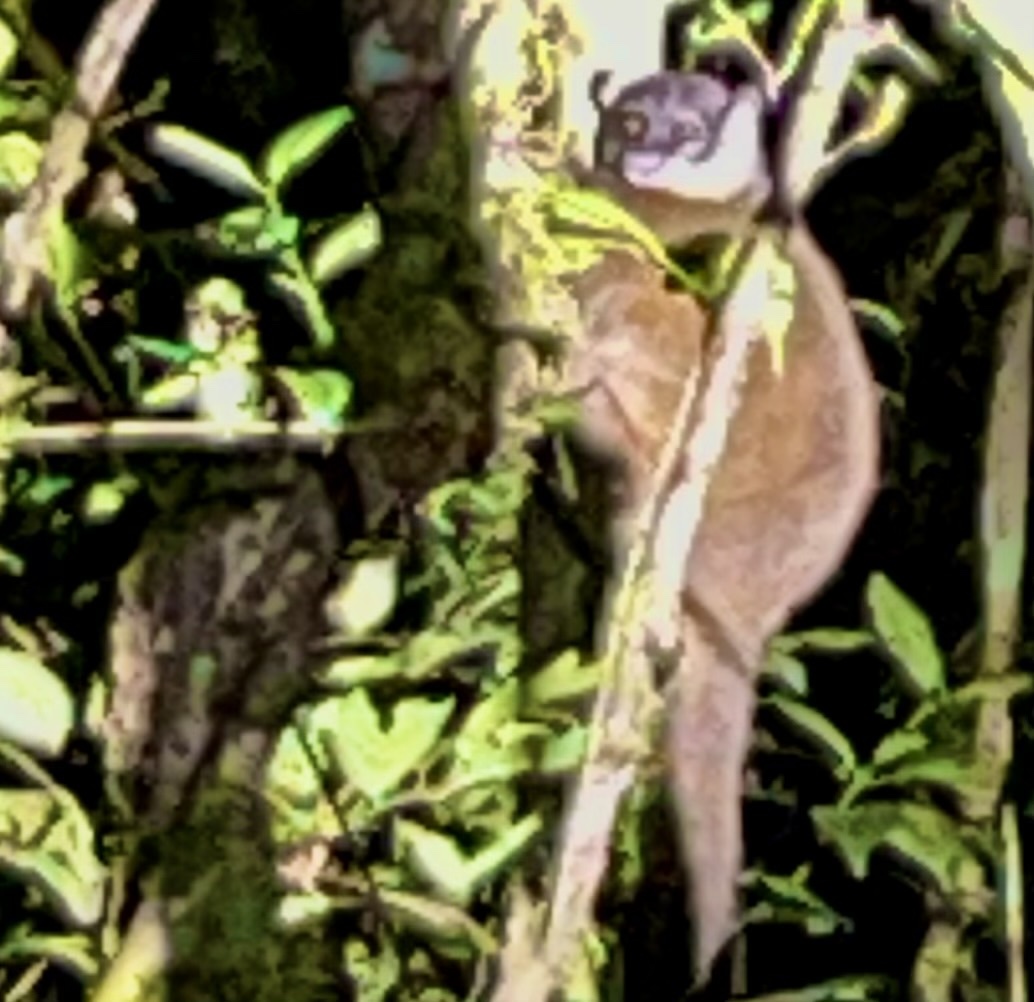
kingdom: Animalia
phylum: Chordata
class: Mammalia
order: Primates
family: Lepilemuridae
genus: Lepilemur
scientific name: Lepilemur mustelinus
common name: Weasel sportive lemur
